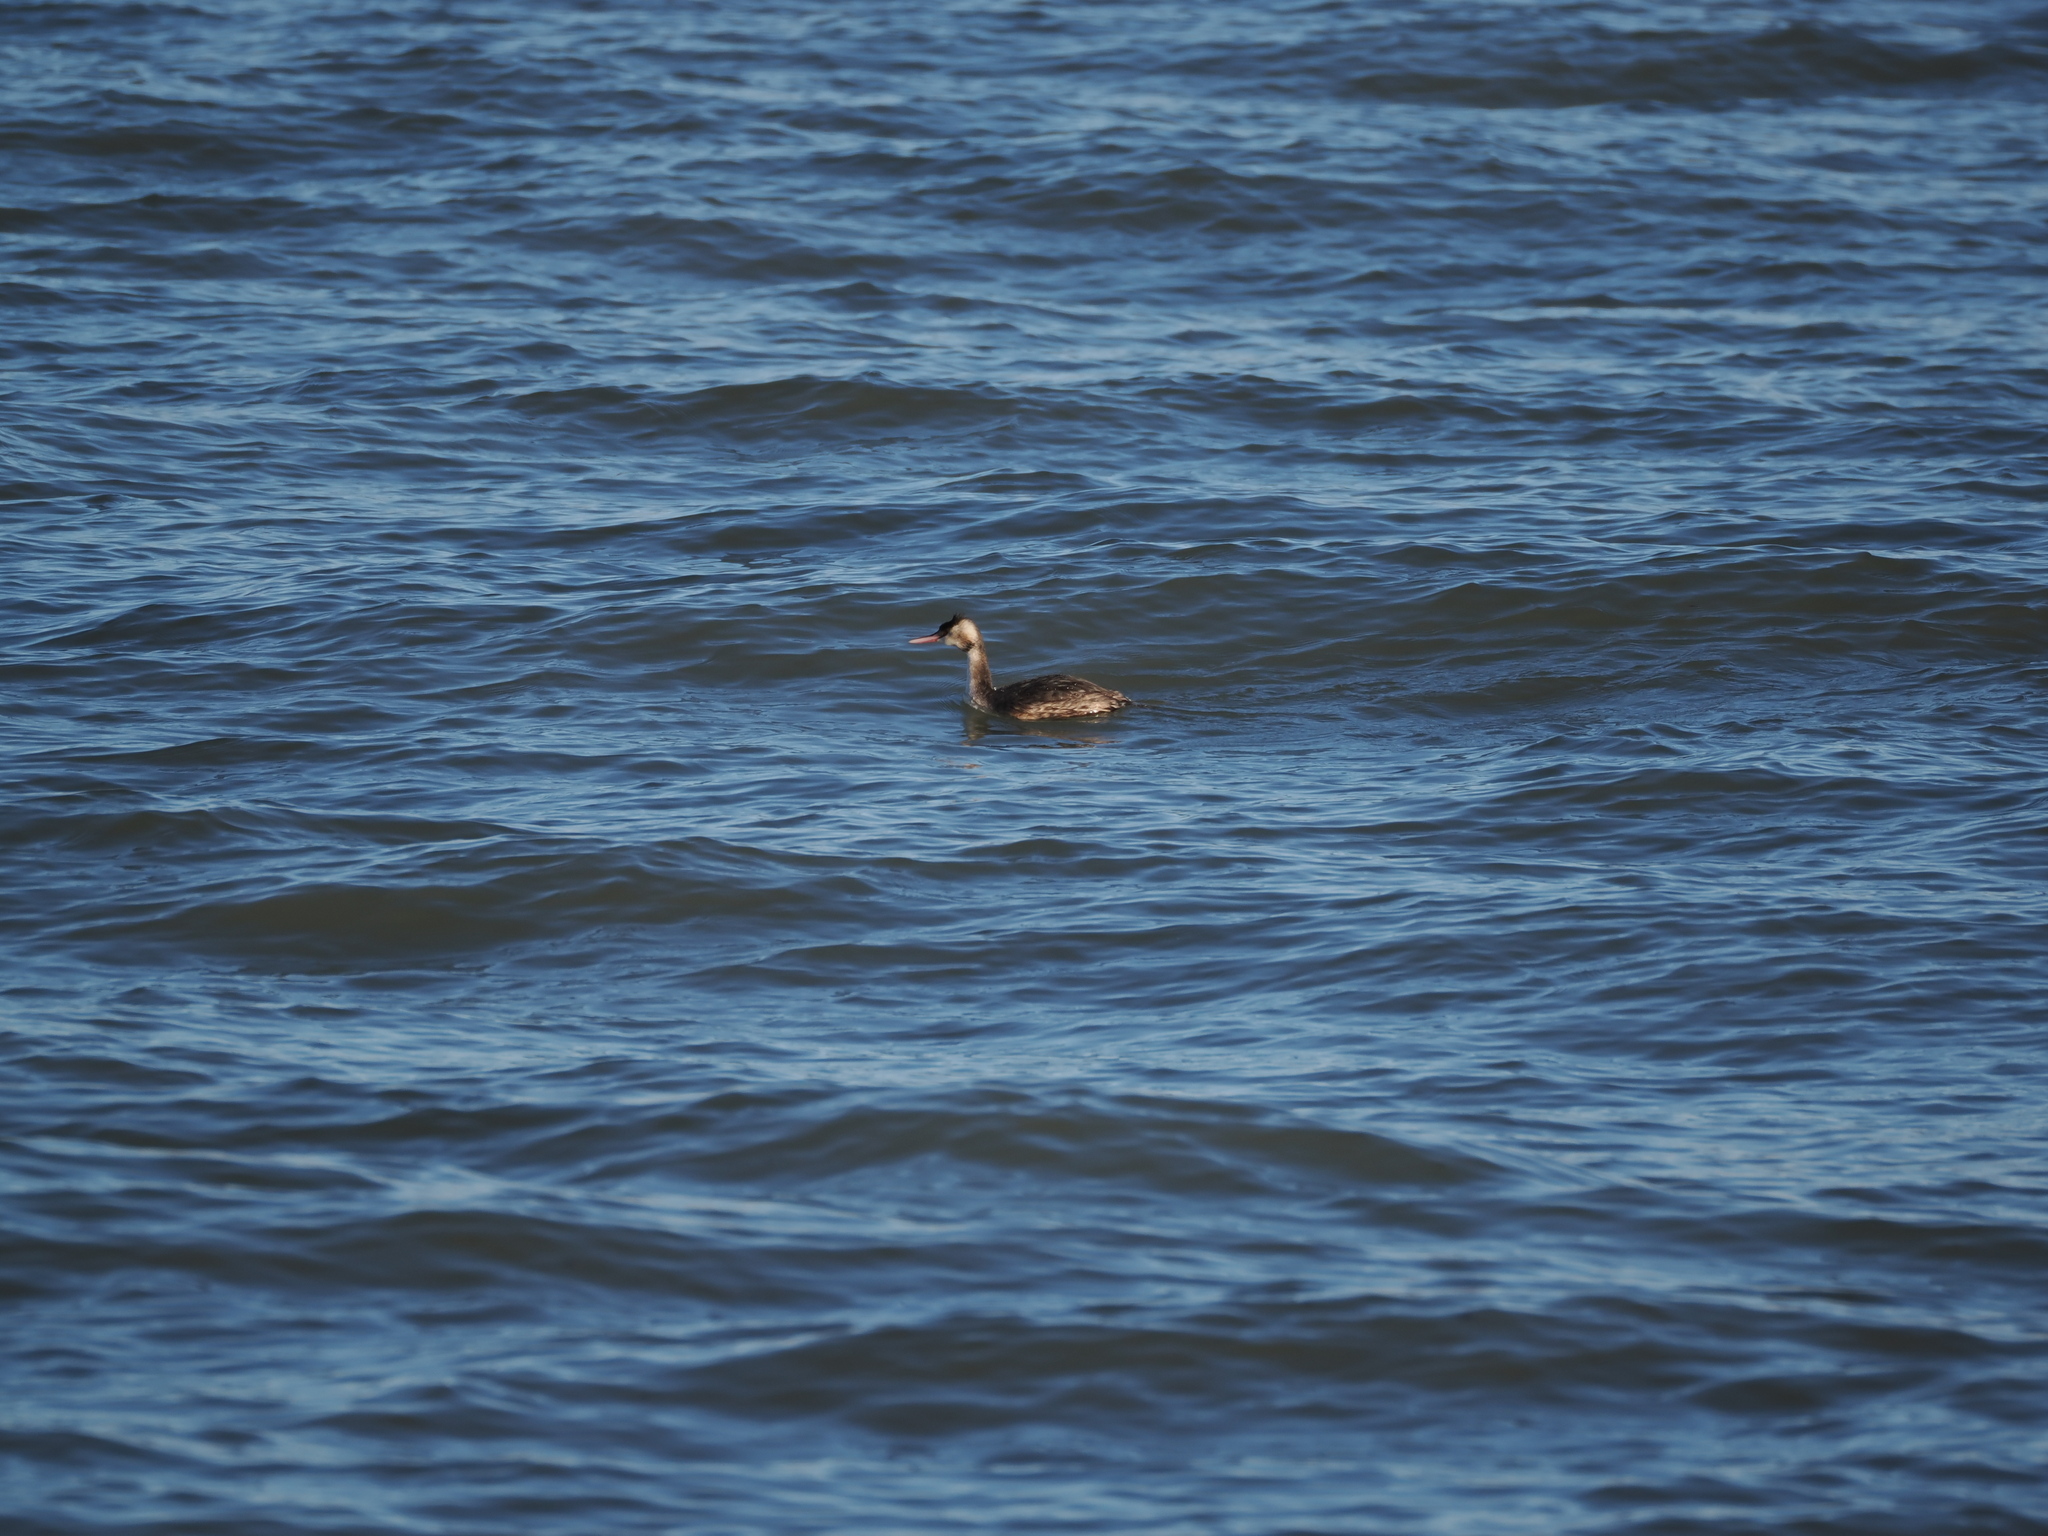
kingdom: Animalia
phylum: Chordata
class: Aves
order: Podicipediformes
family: Podicipedidae
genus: Podiceps
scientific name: Podiceps cristatus
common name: Great crested grebe
